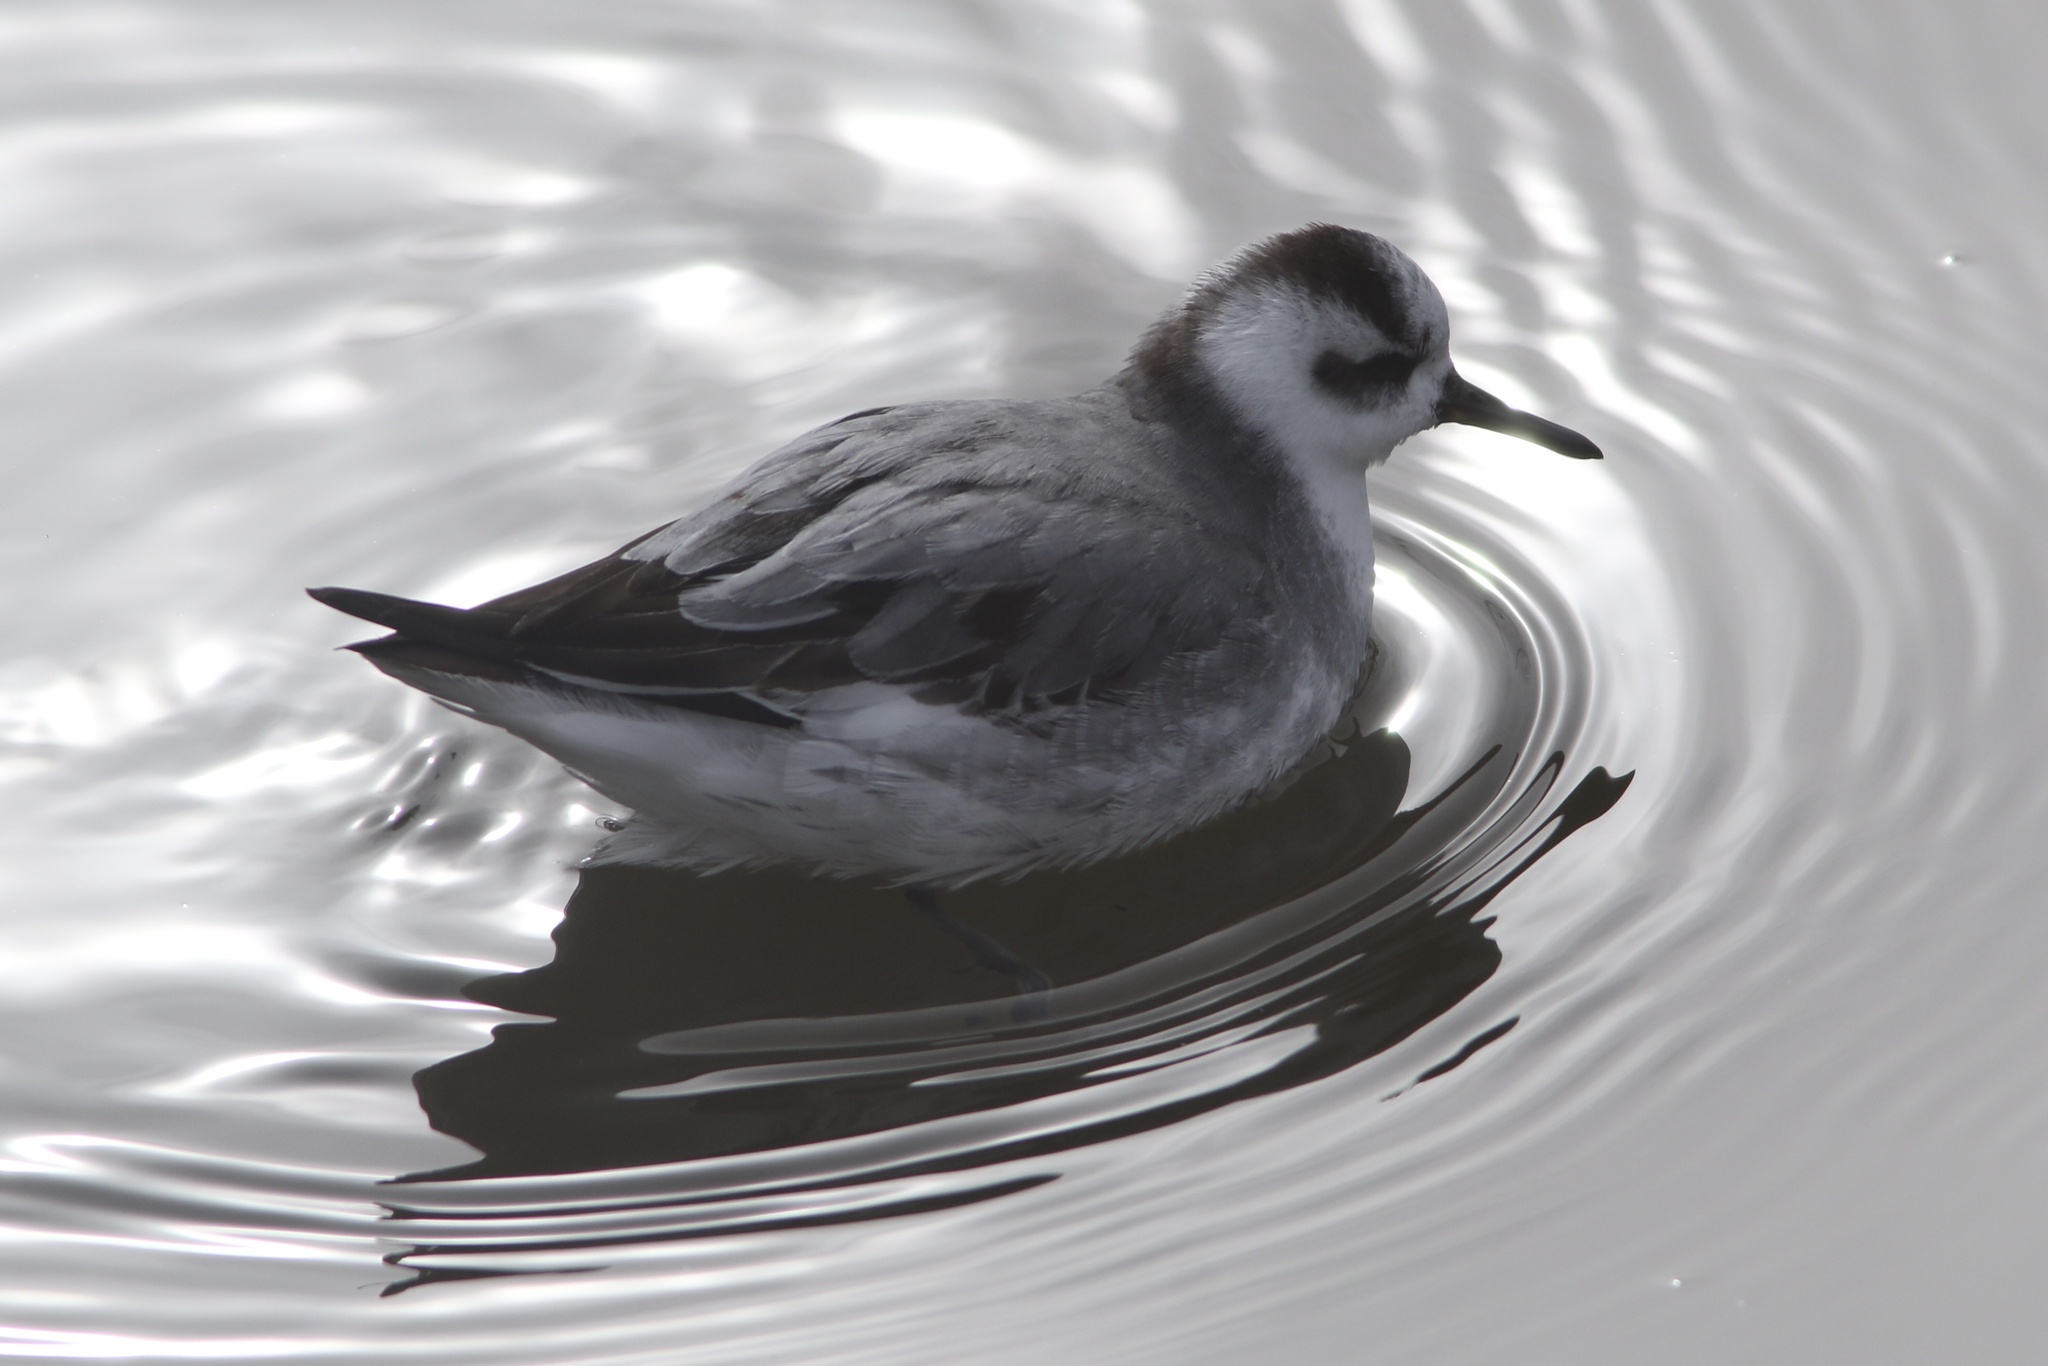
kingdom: Animalia
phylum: Chordata
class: Aves
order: Charadriiformes
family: Scolopacidae
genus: Phalaropus
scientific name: Phalaropus fulicarius
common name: Red phalarope
